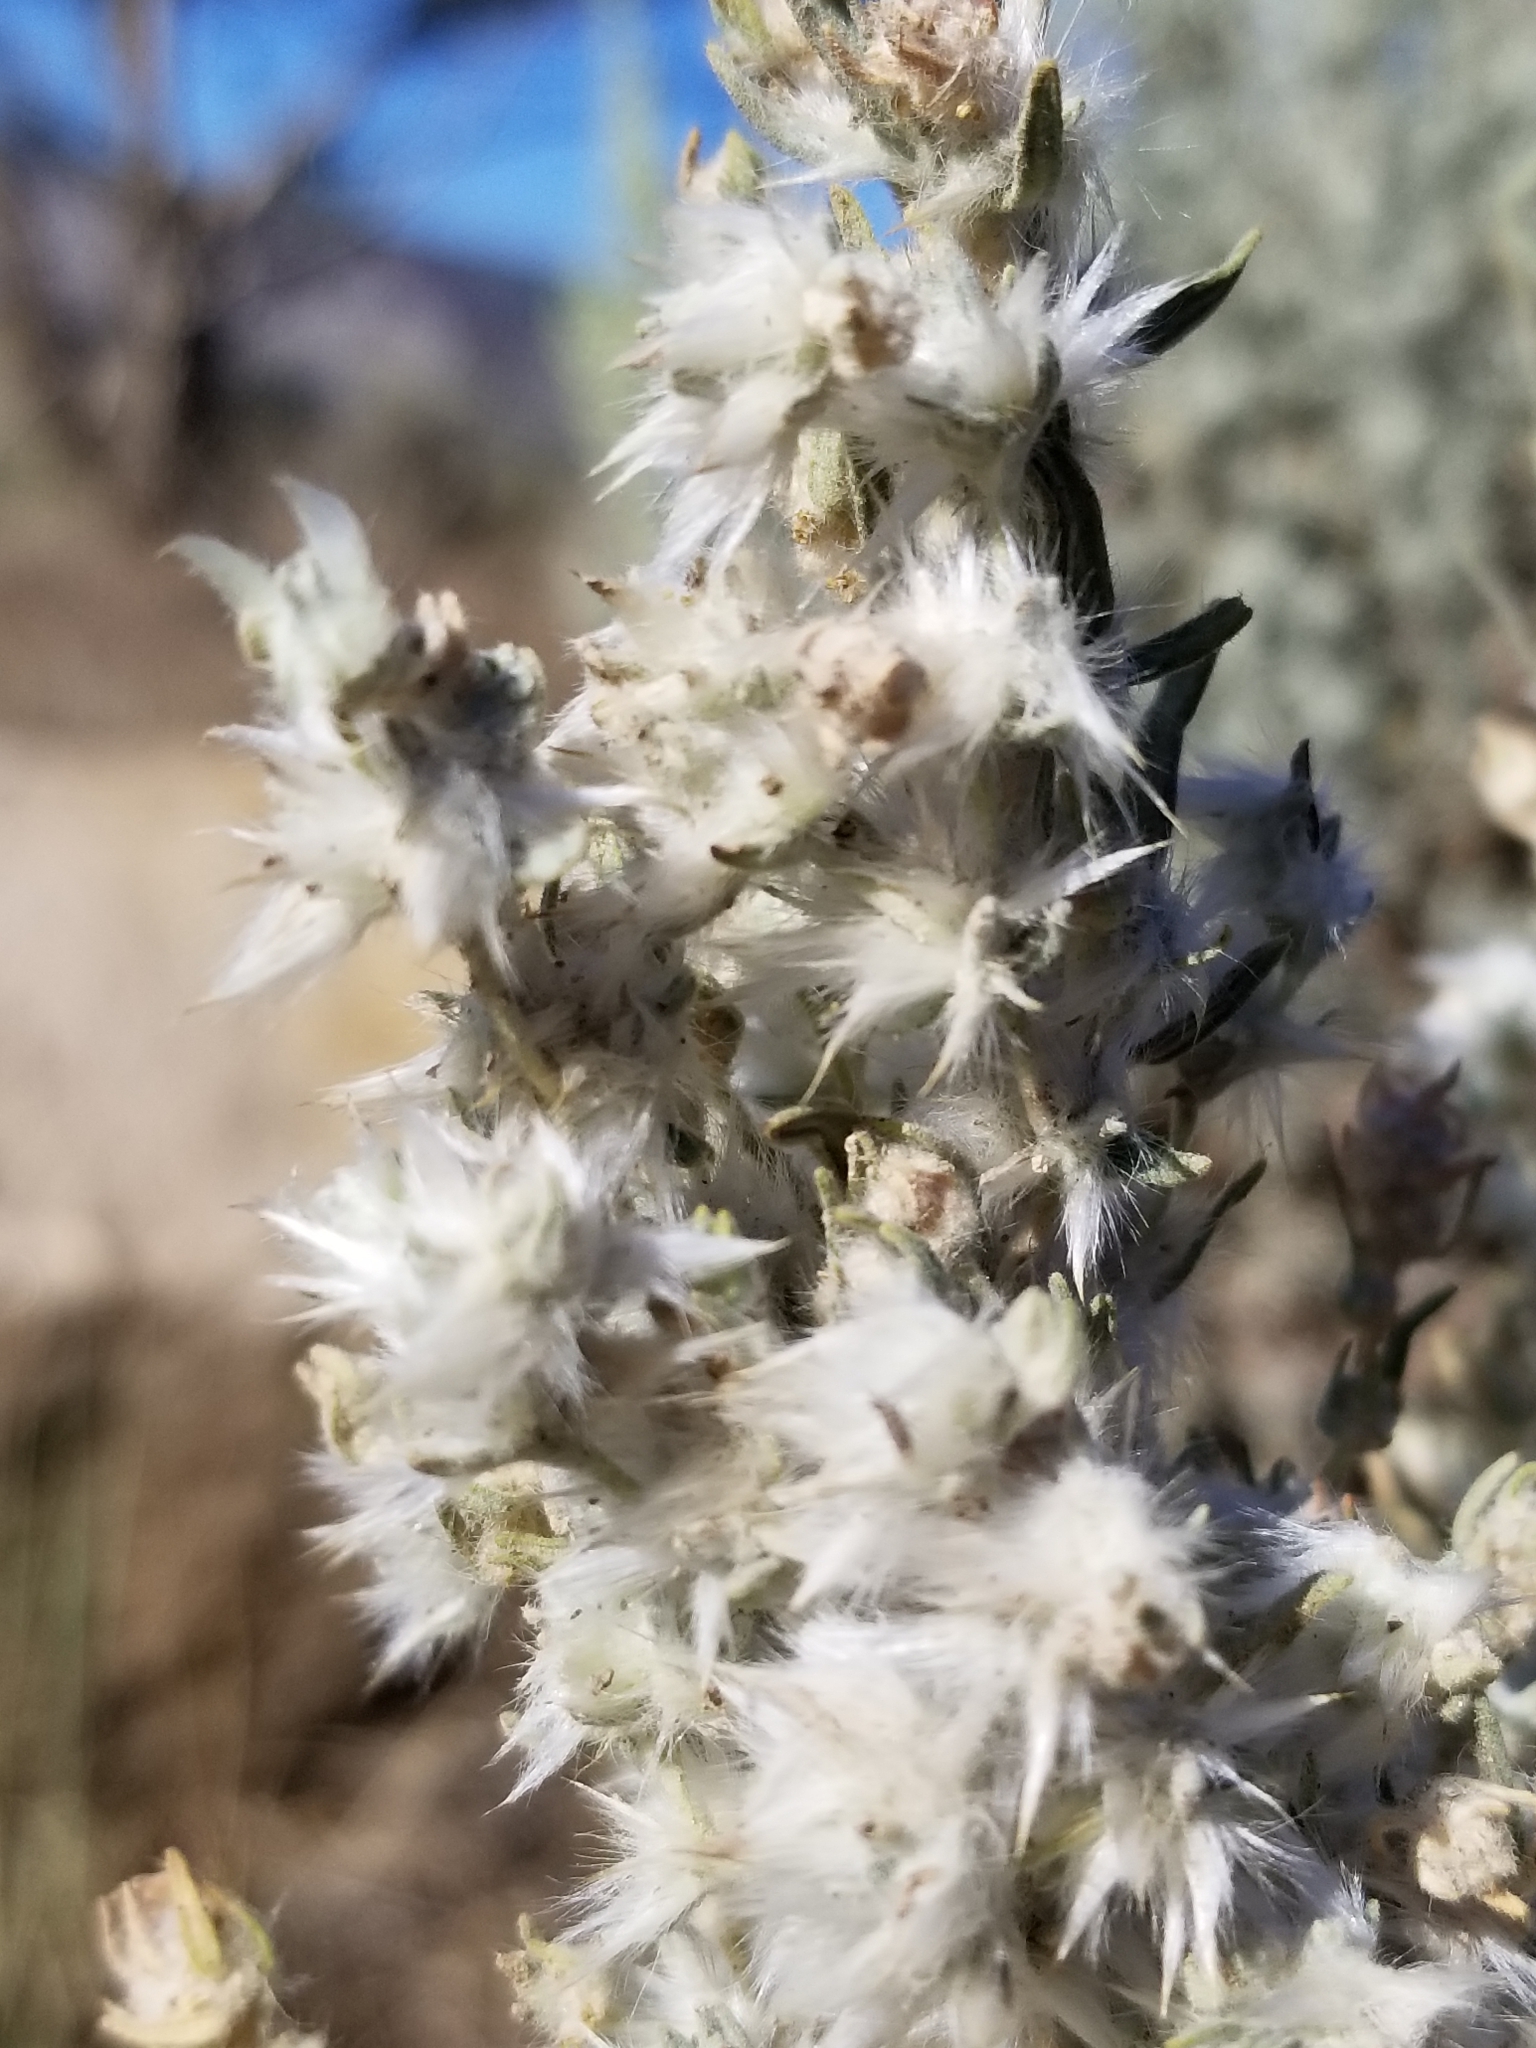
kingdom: Plantae
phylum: Tracheophyta
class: Magnoliopsida
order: Caryophyllales
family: Amaranthaceae
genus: Krascheninnikovia
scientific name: Krascheninnikovia lanata
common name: Winterfat
